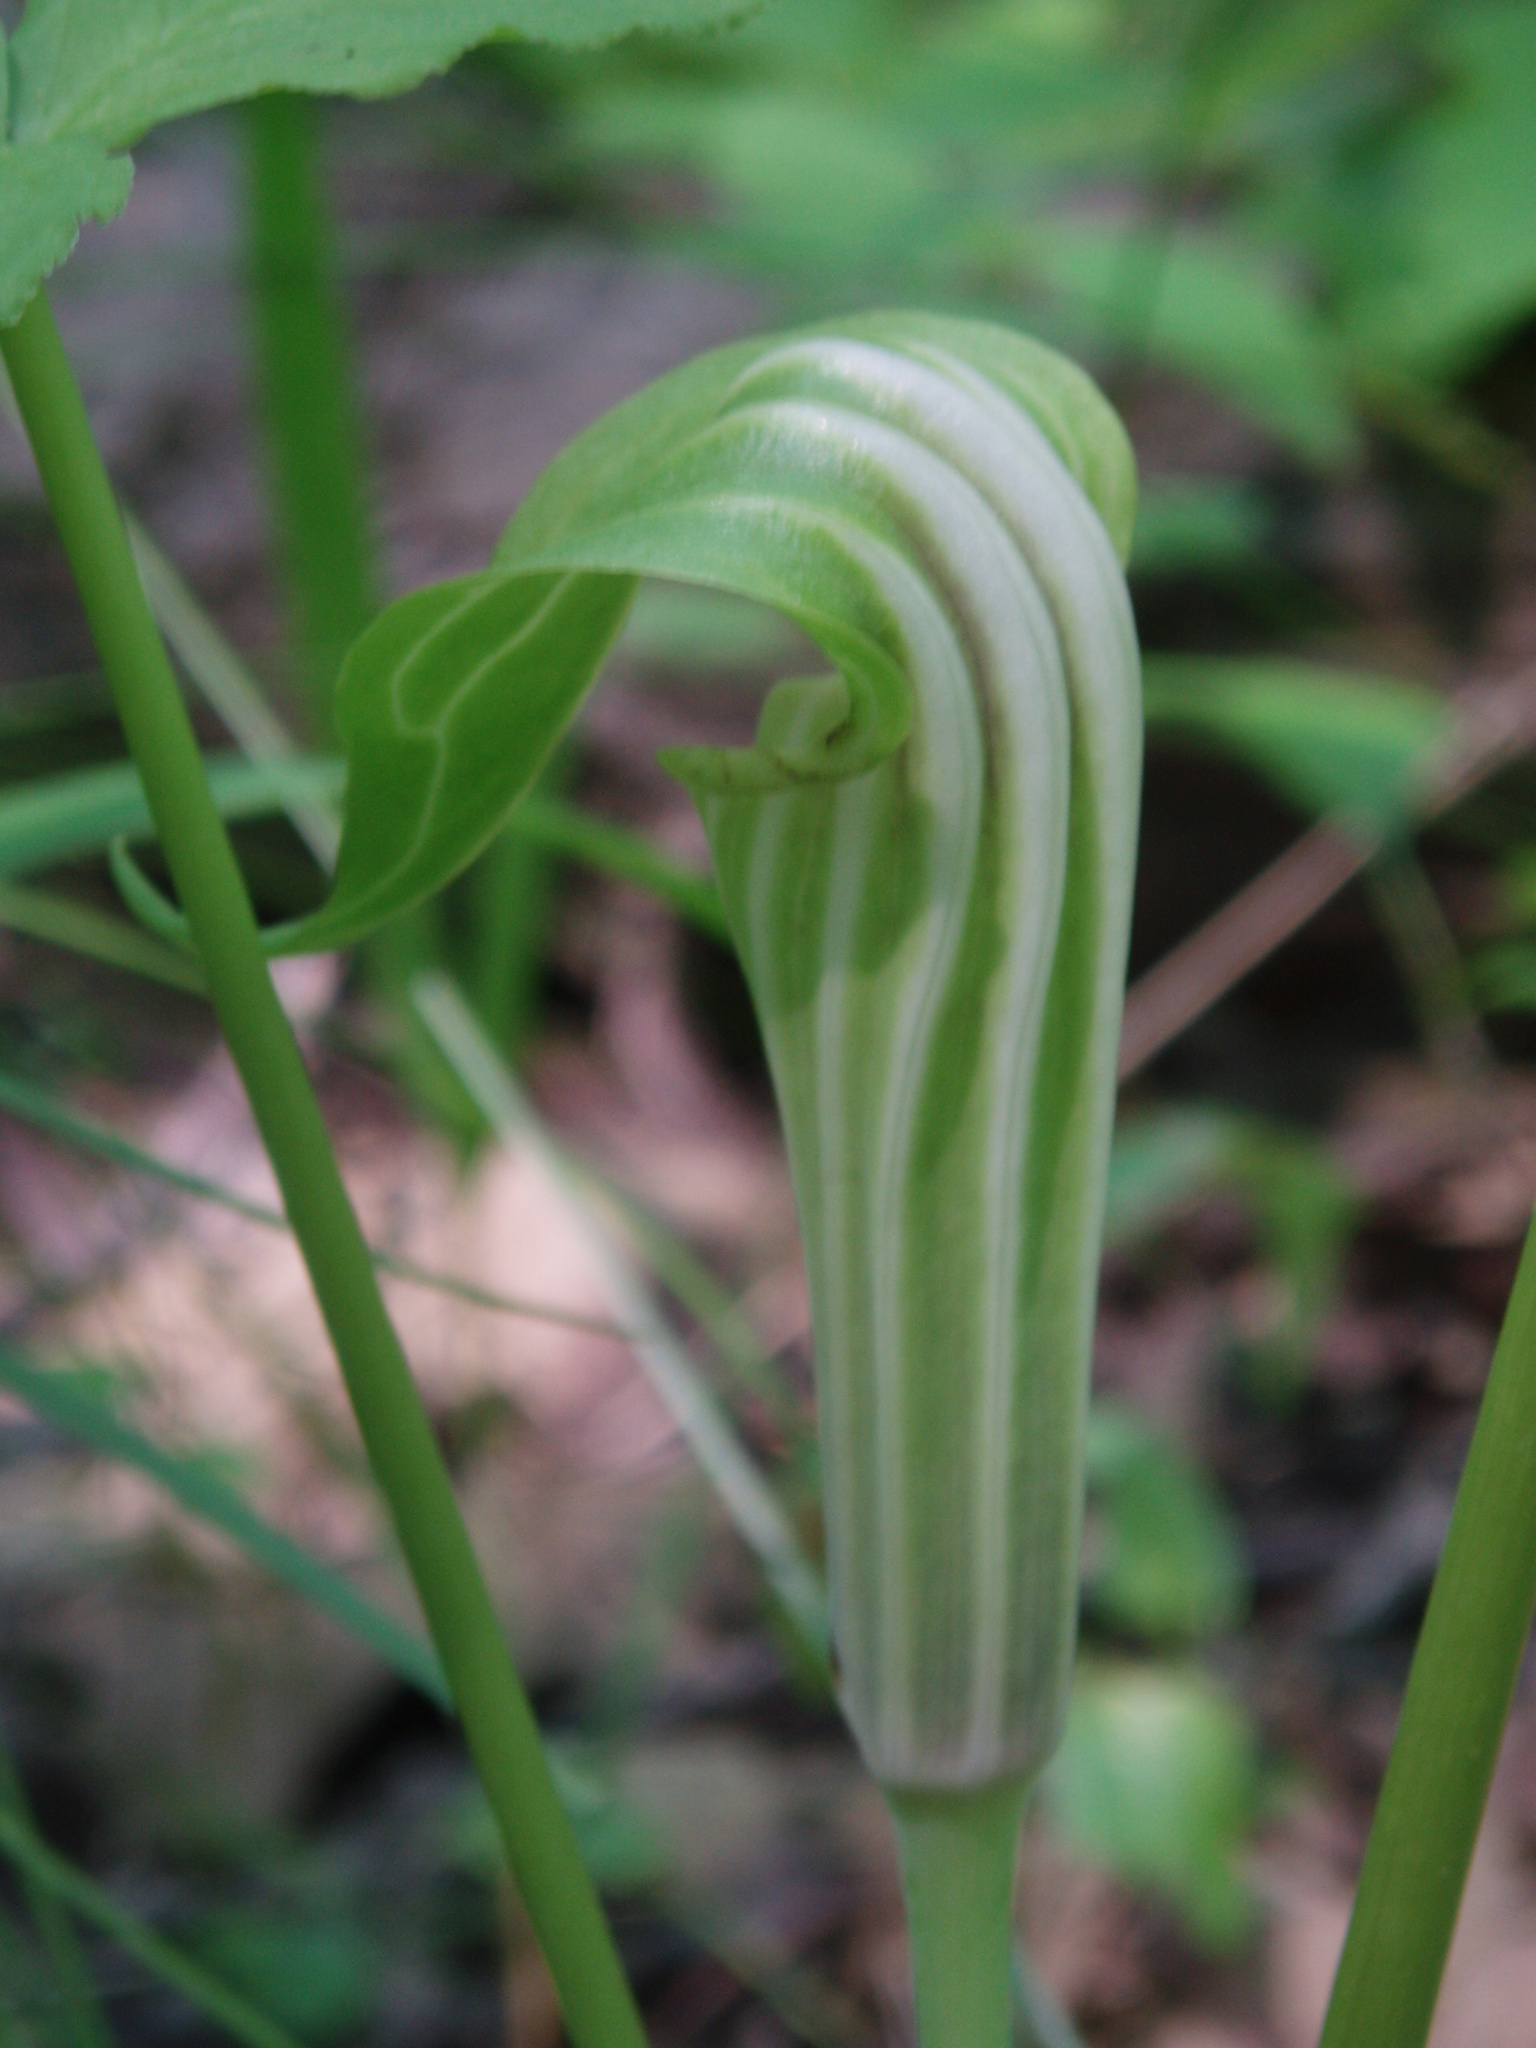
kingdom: Plantae
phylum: Tracheophyta
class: Liliopsida
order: Alismatales
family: Araceae
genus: Arisaema
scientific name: Arisaema stewardsonii
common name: Swamp jack-in-the-pulpit
